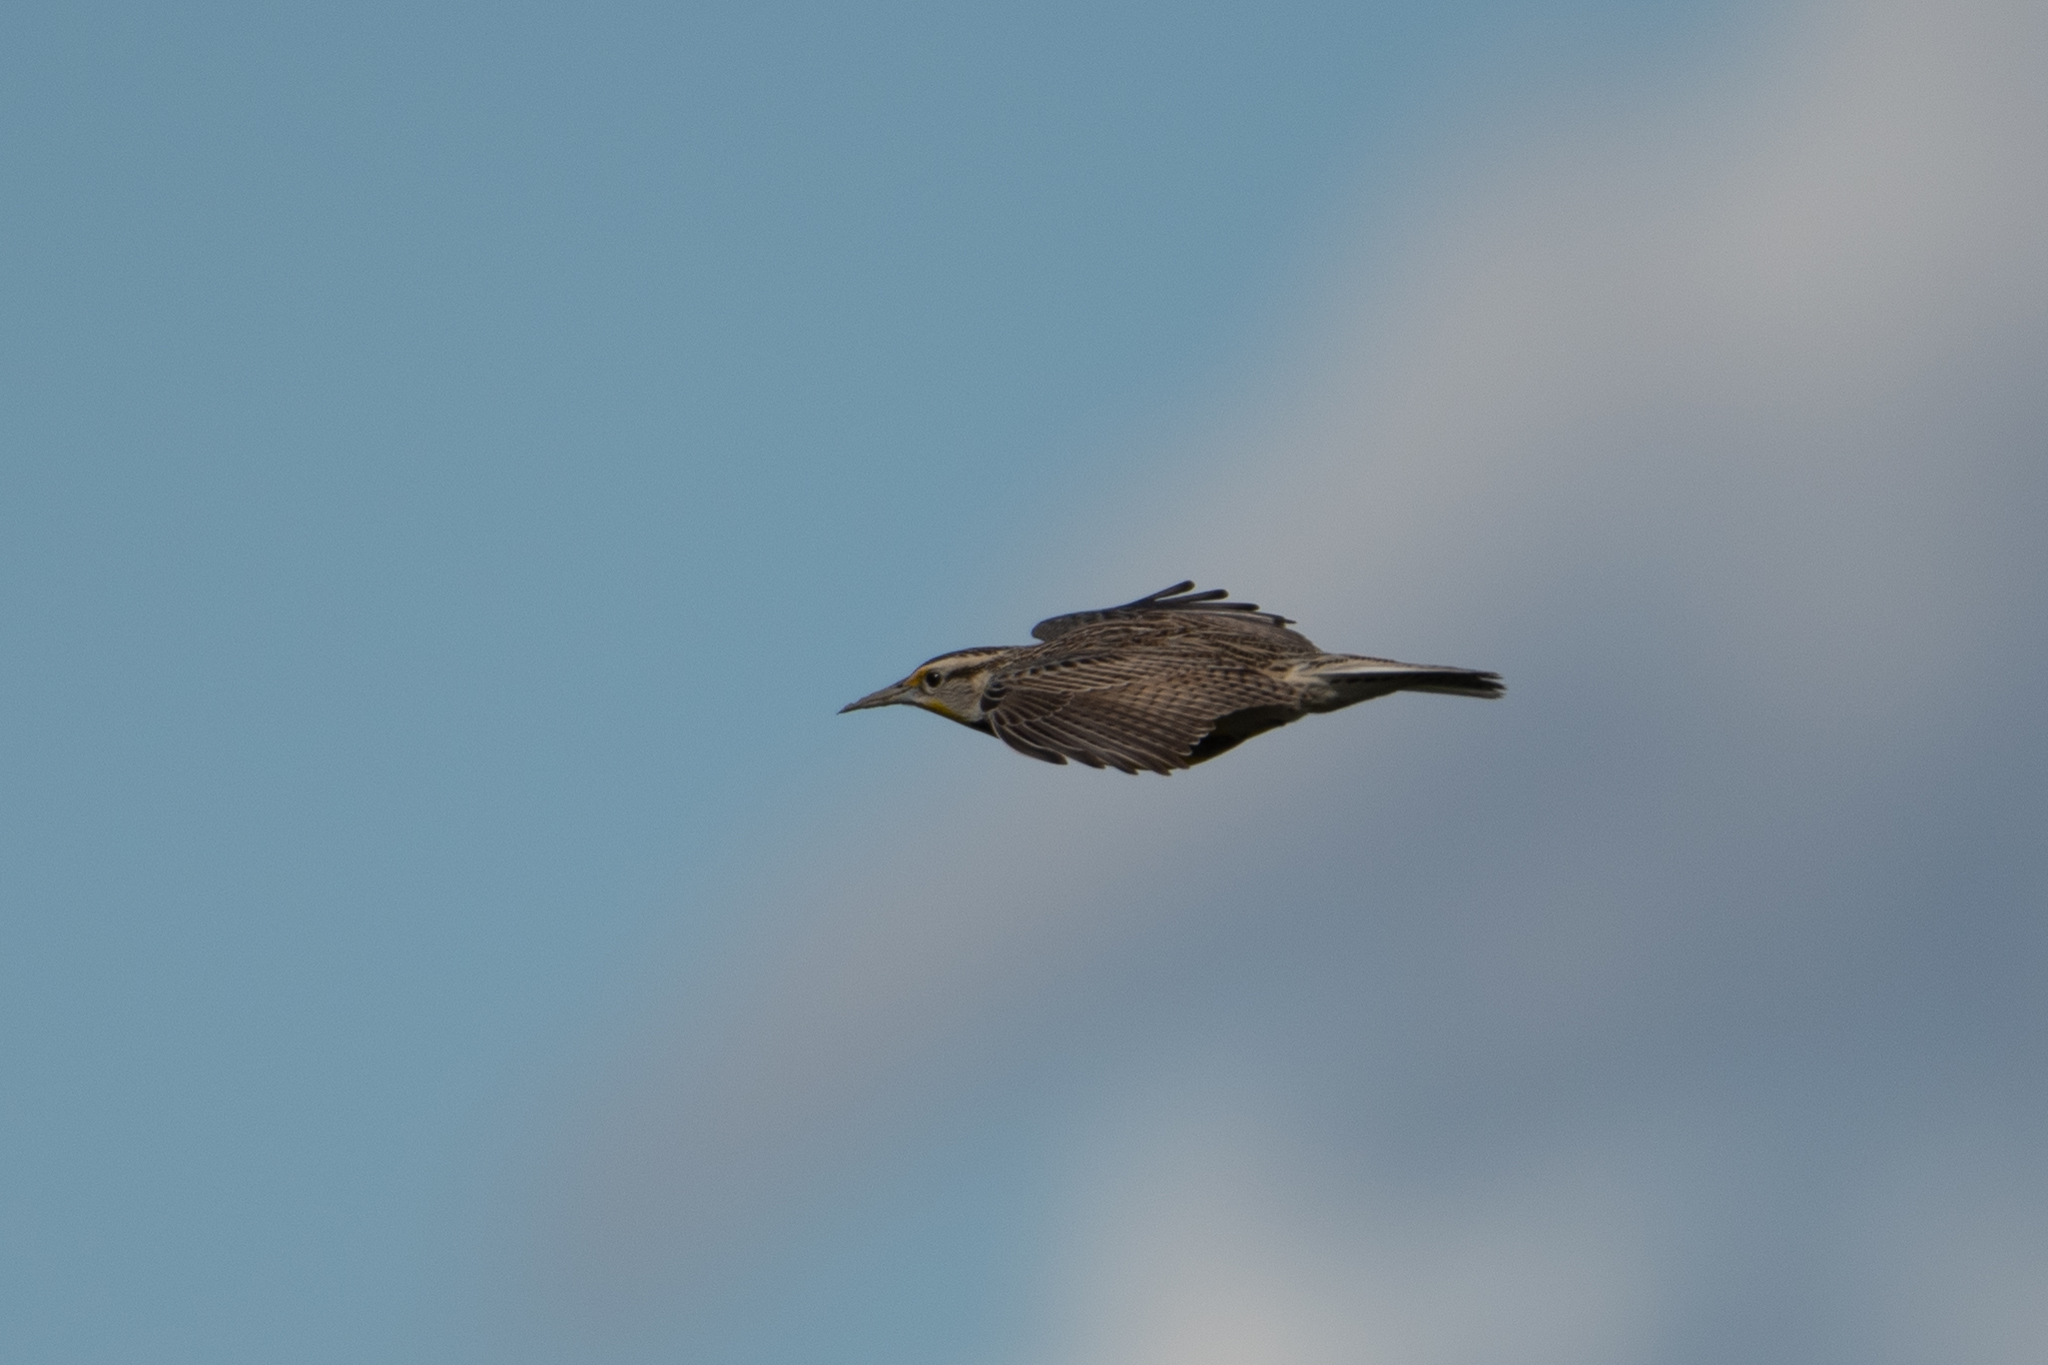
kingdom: Animalia
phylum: Chordata
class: Aves
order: Passeriformes
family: Icteridae
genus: Sturnella
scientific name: Sturnella neglecta
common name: Western meadowlark
